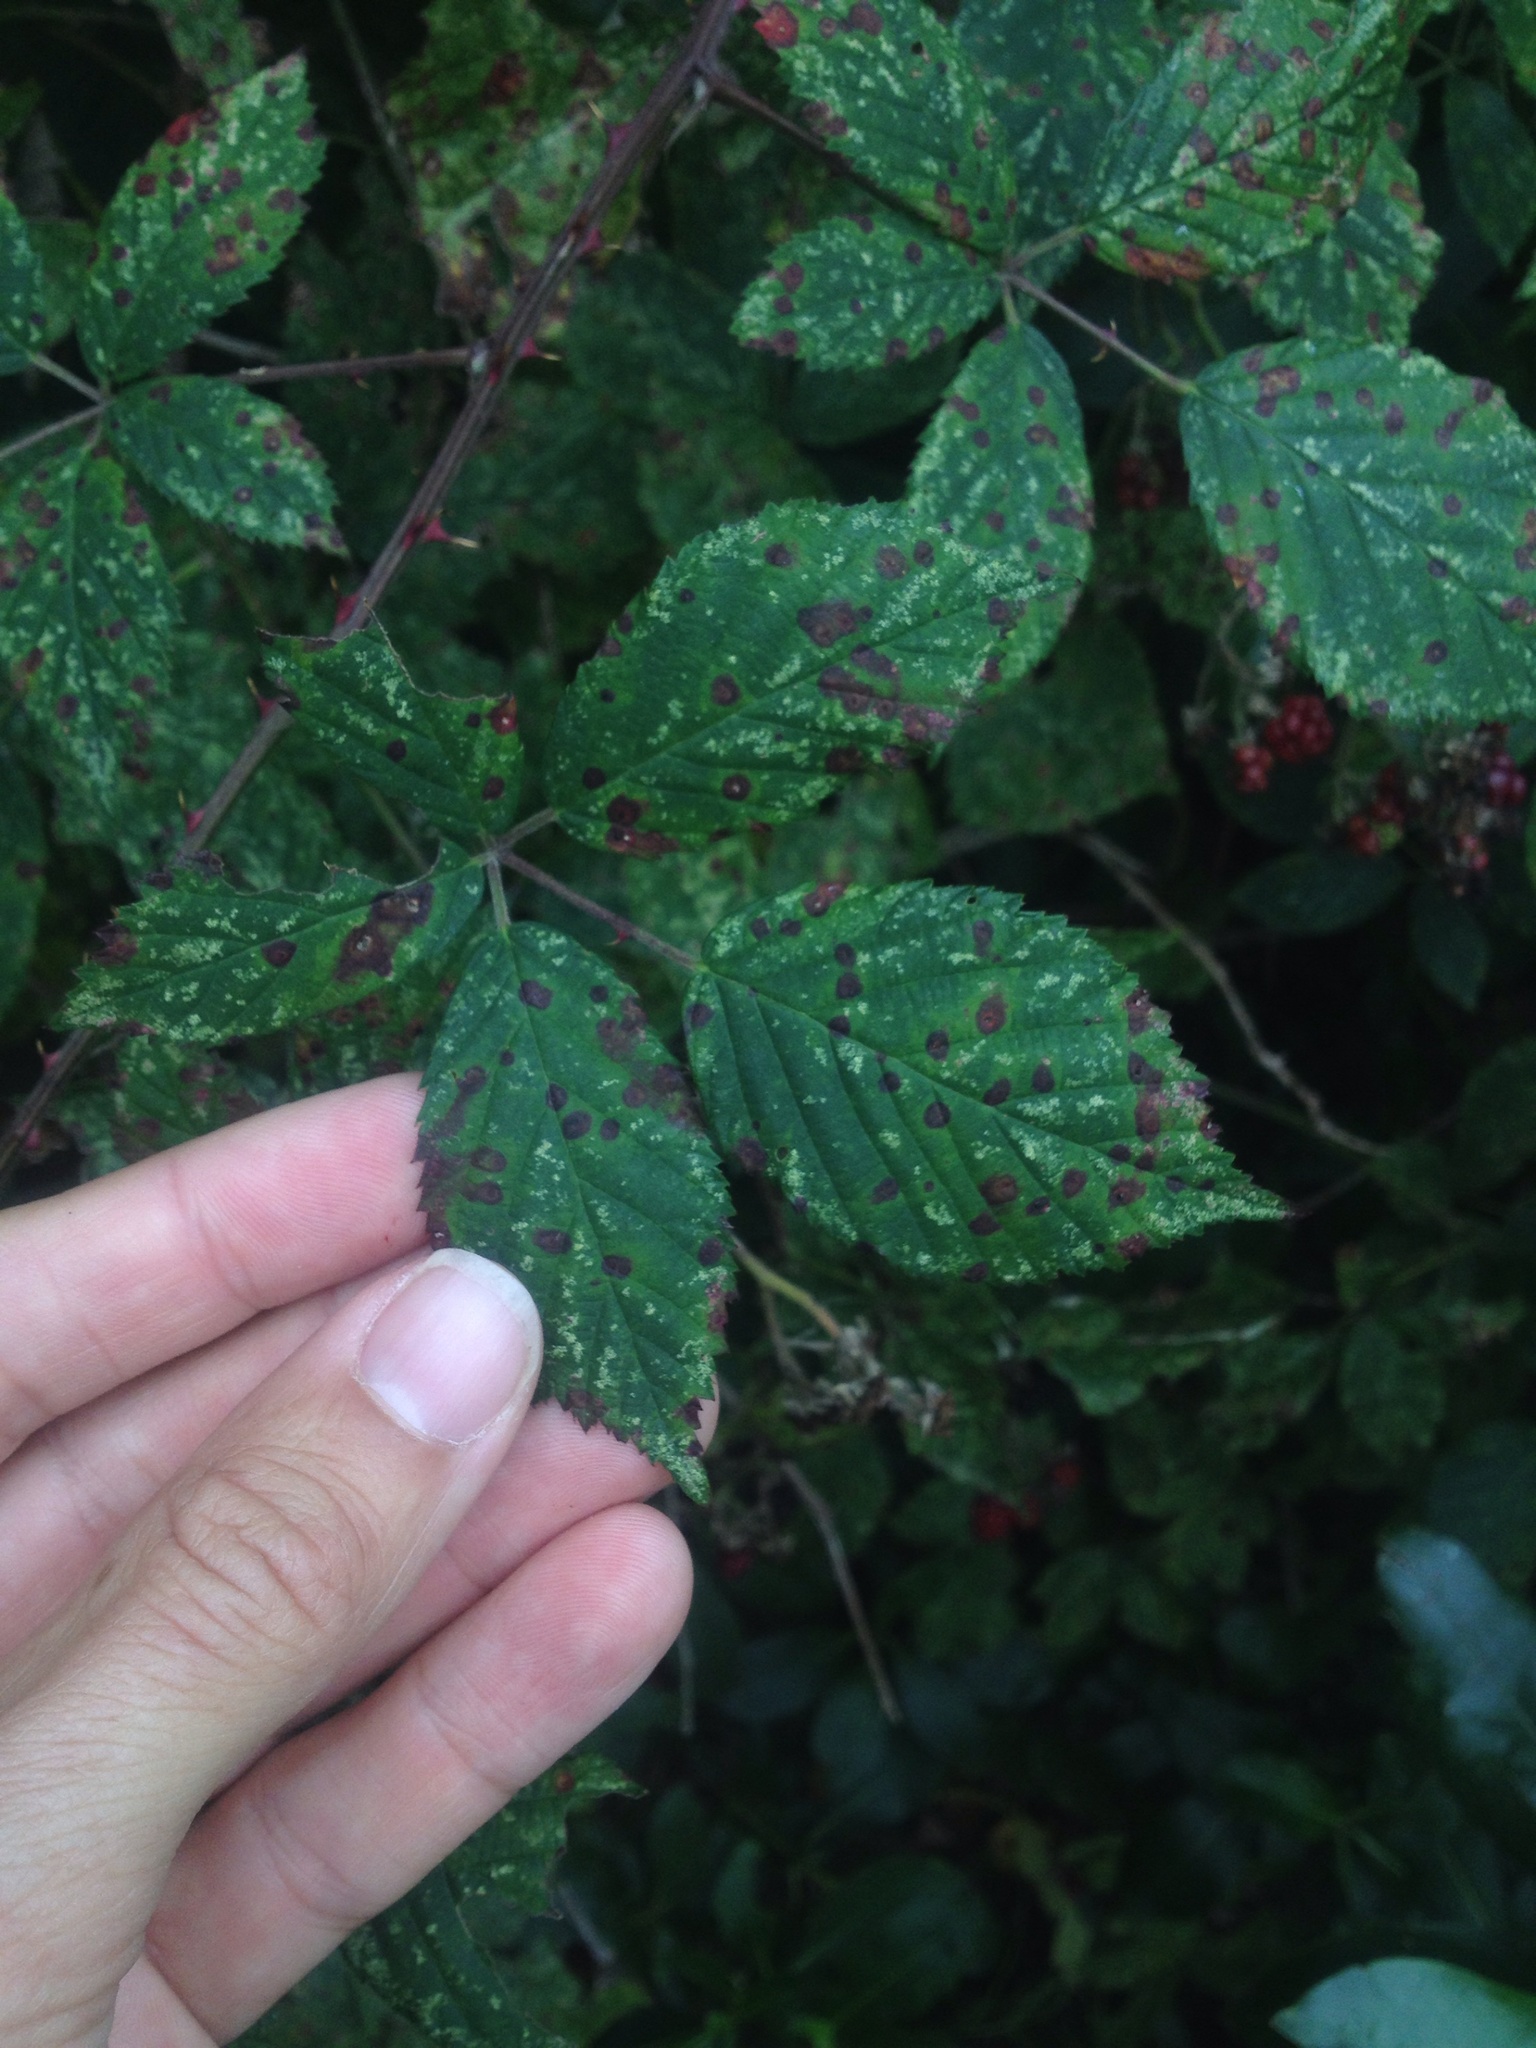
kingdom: Fungi
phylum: Basidiomycota
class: Pucciniomycetes
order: Pucciniales
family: Phragmidiaceae
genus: Phragmidium
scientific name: Phragmidium violaceum
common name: Violet bramble rust
